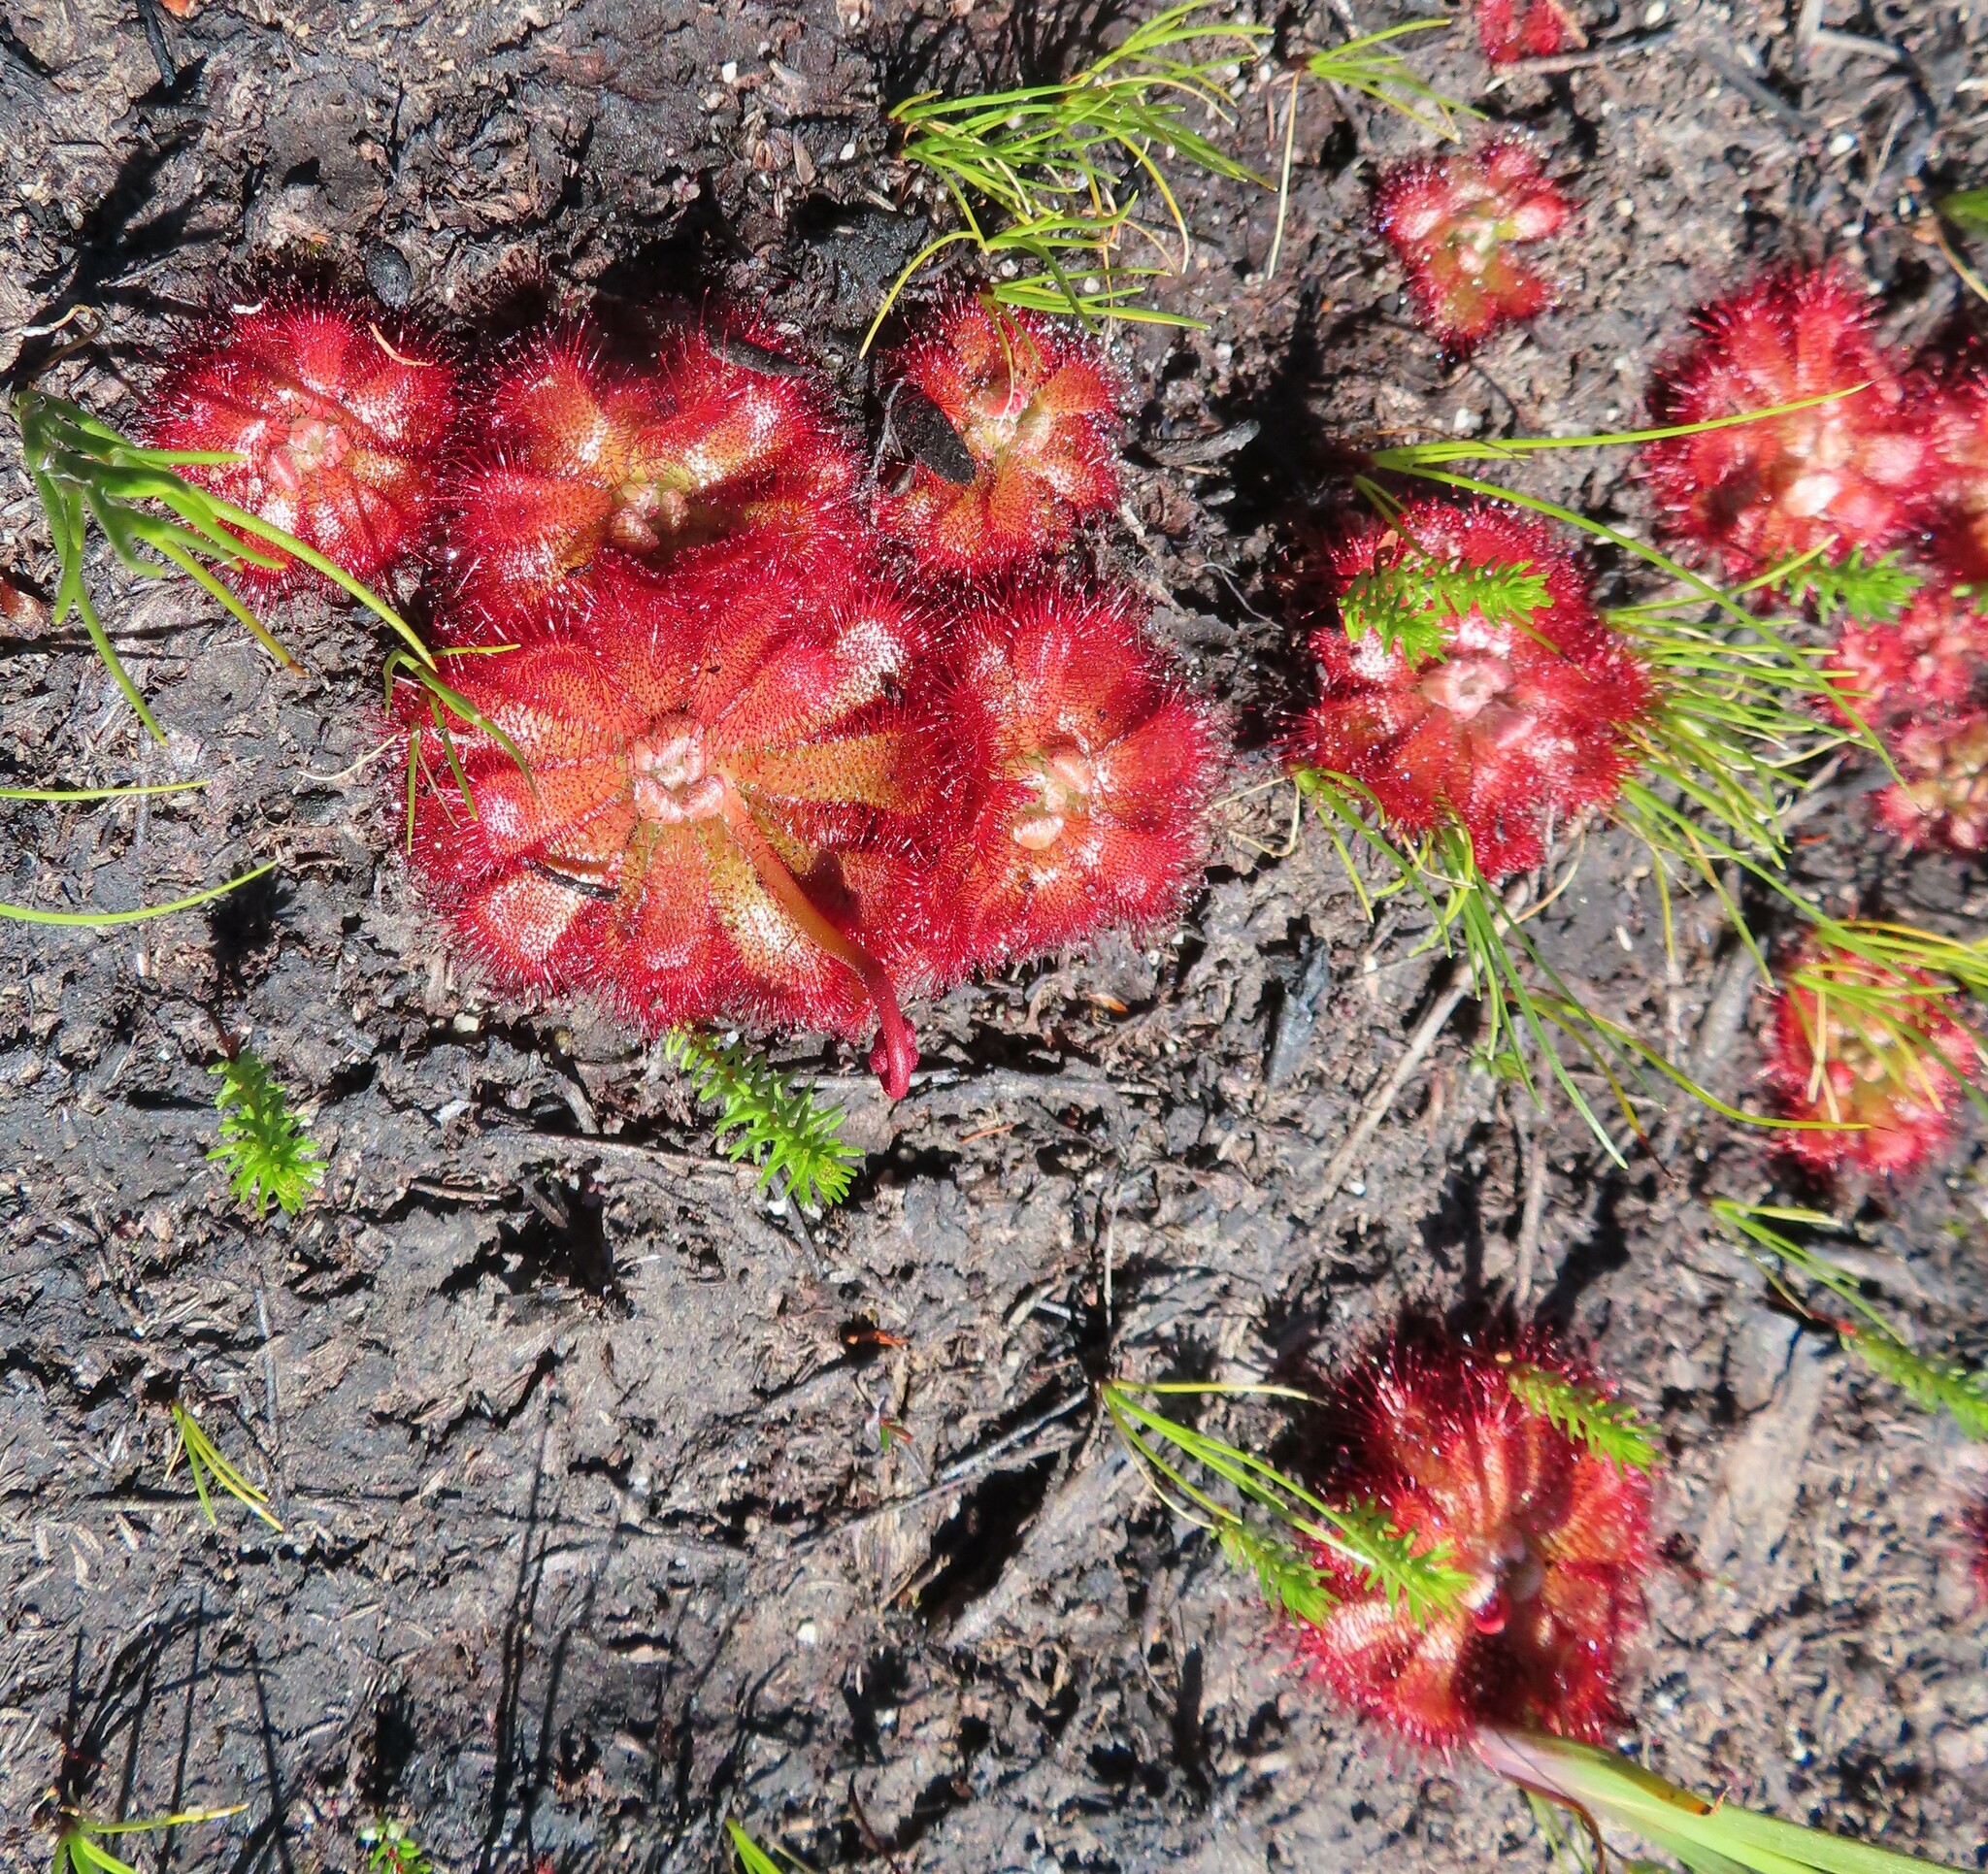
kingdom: Plantae
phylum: Tracheophyta
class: Magnoliopsida
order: Caryophyllales
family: Droseraceae
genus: Drosera
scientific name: Drosera aliciae
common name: Alice sundew
